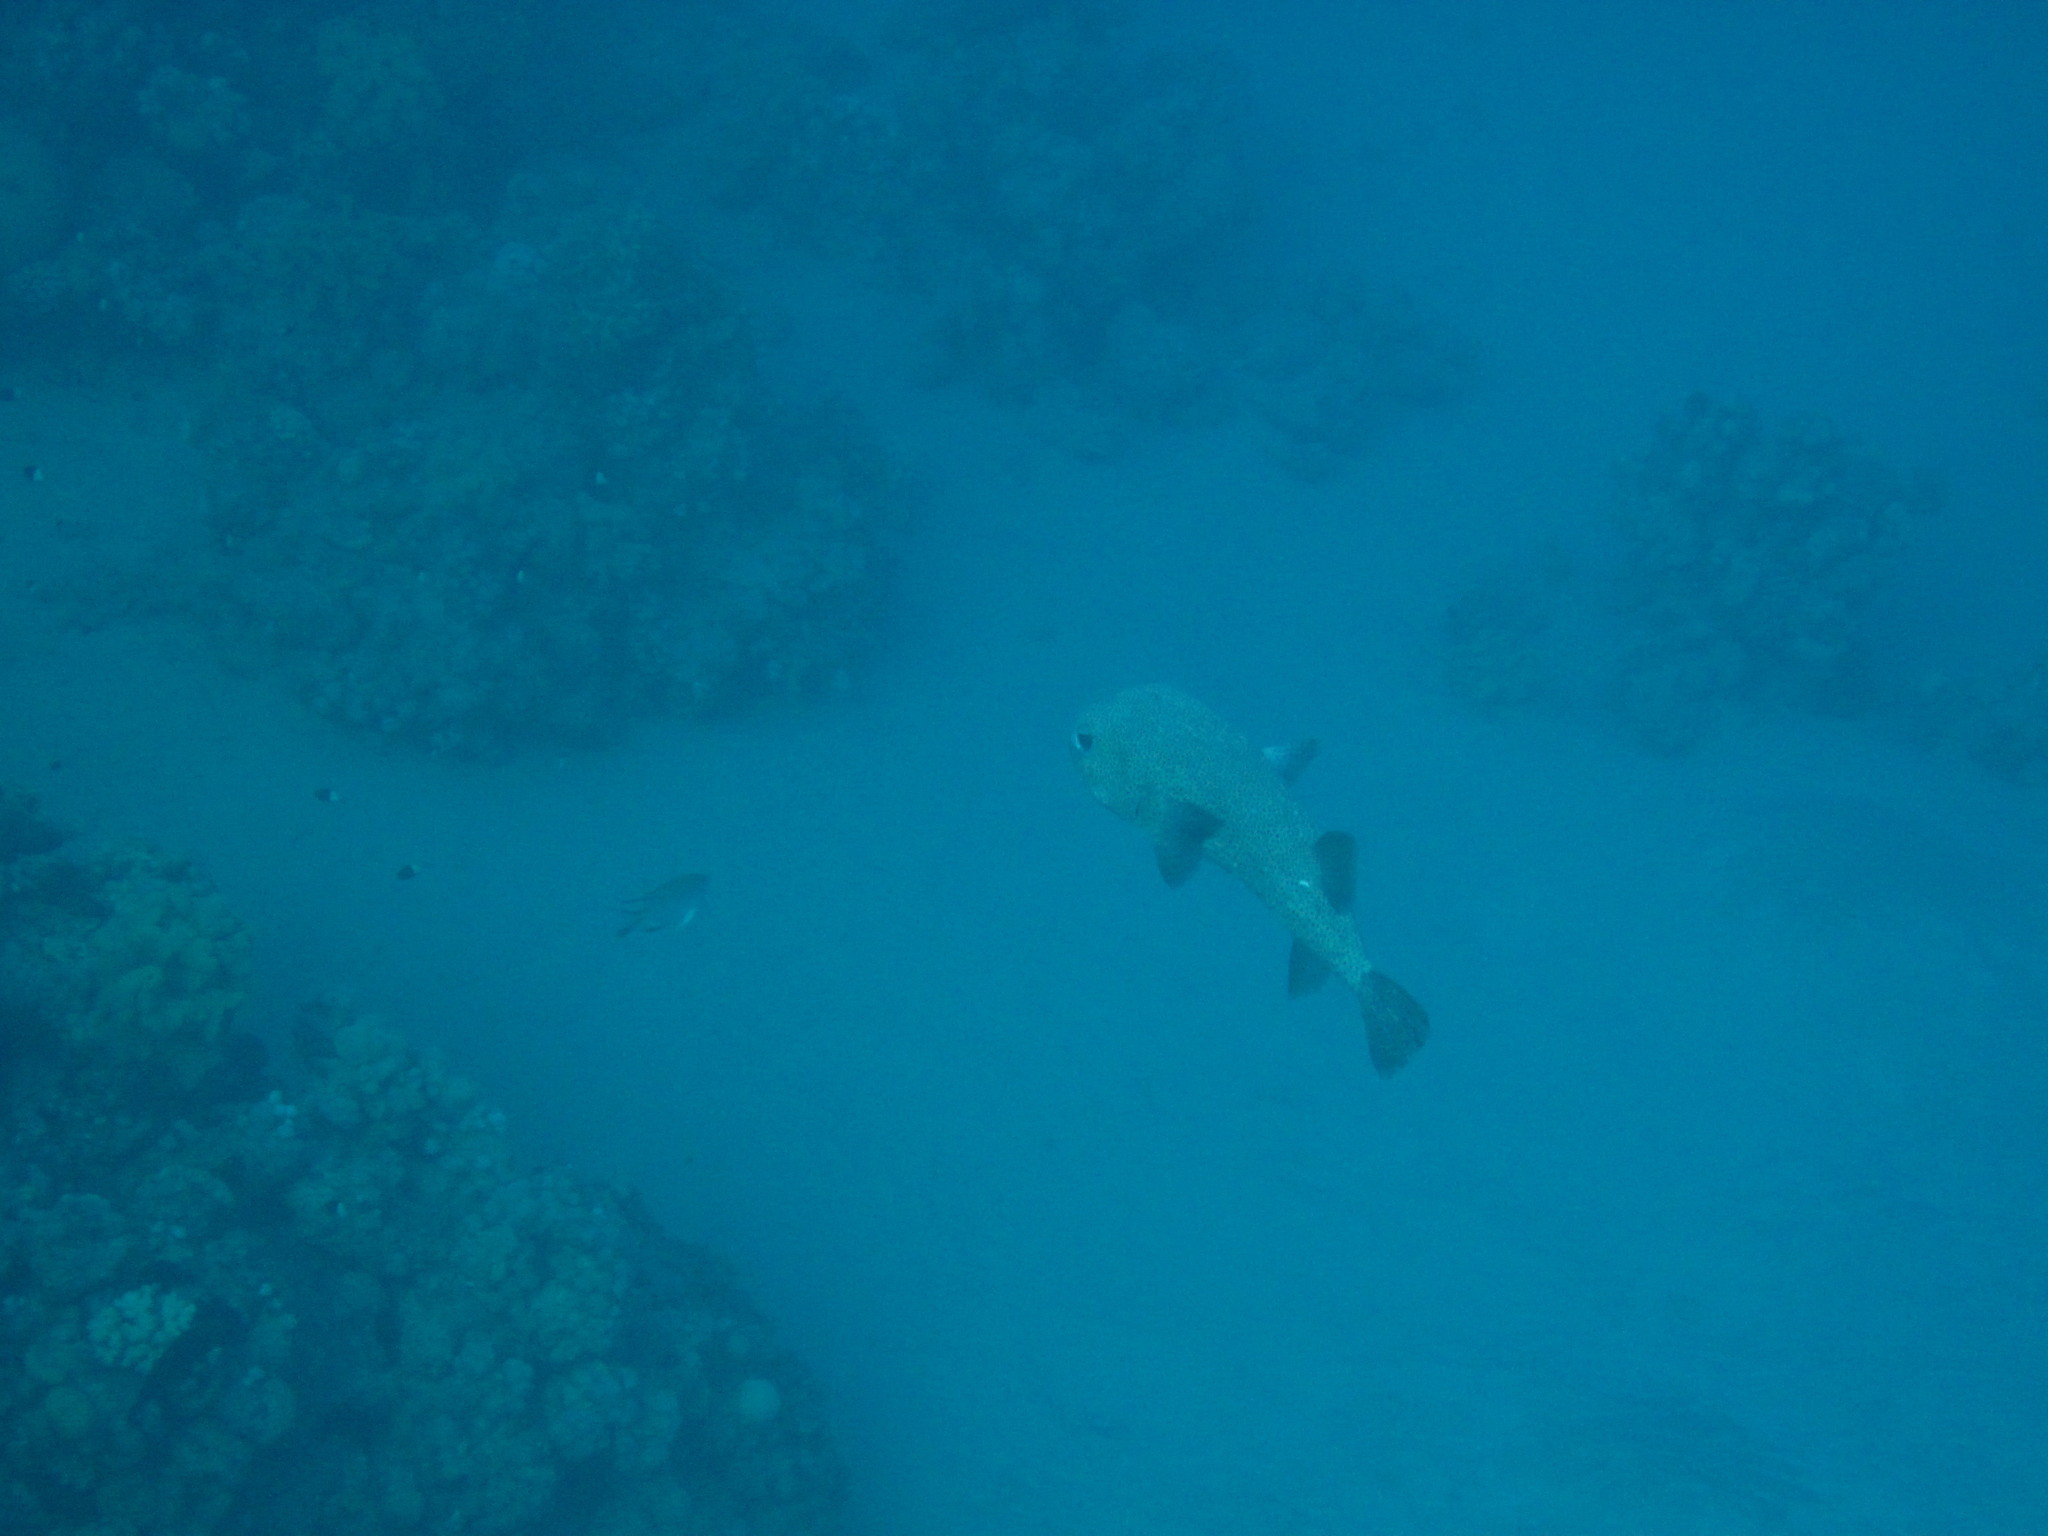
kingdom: Animalia
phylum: Chordata
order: Tetraodontiformes
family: Diodontidae
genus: Diodon
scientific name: Diodon hystrix
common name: Giant porcupinefish
